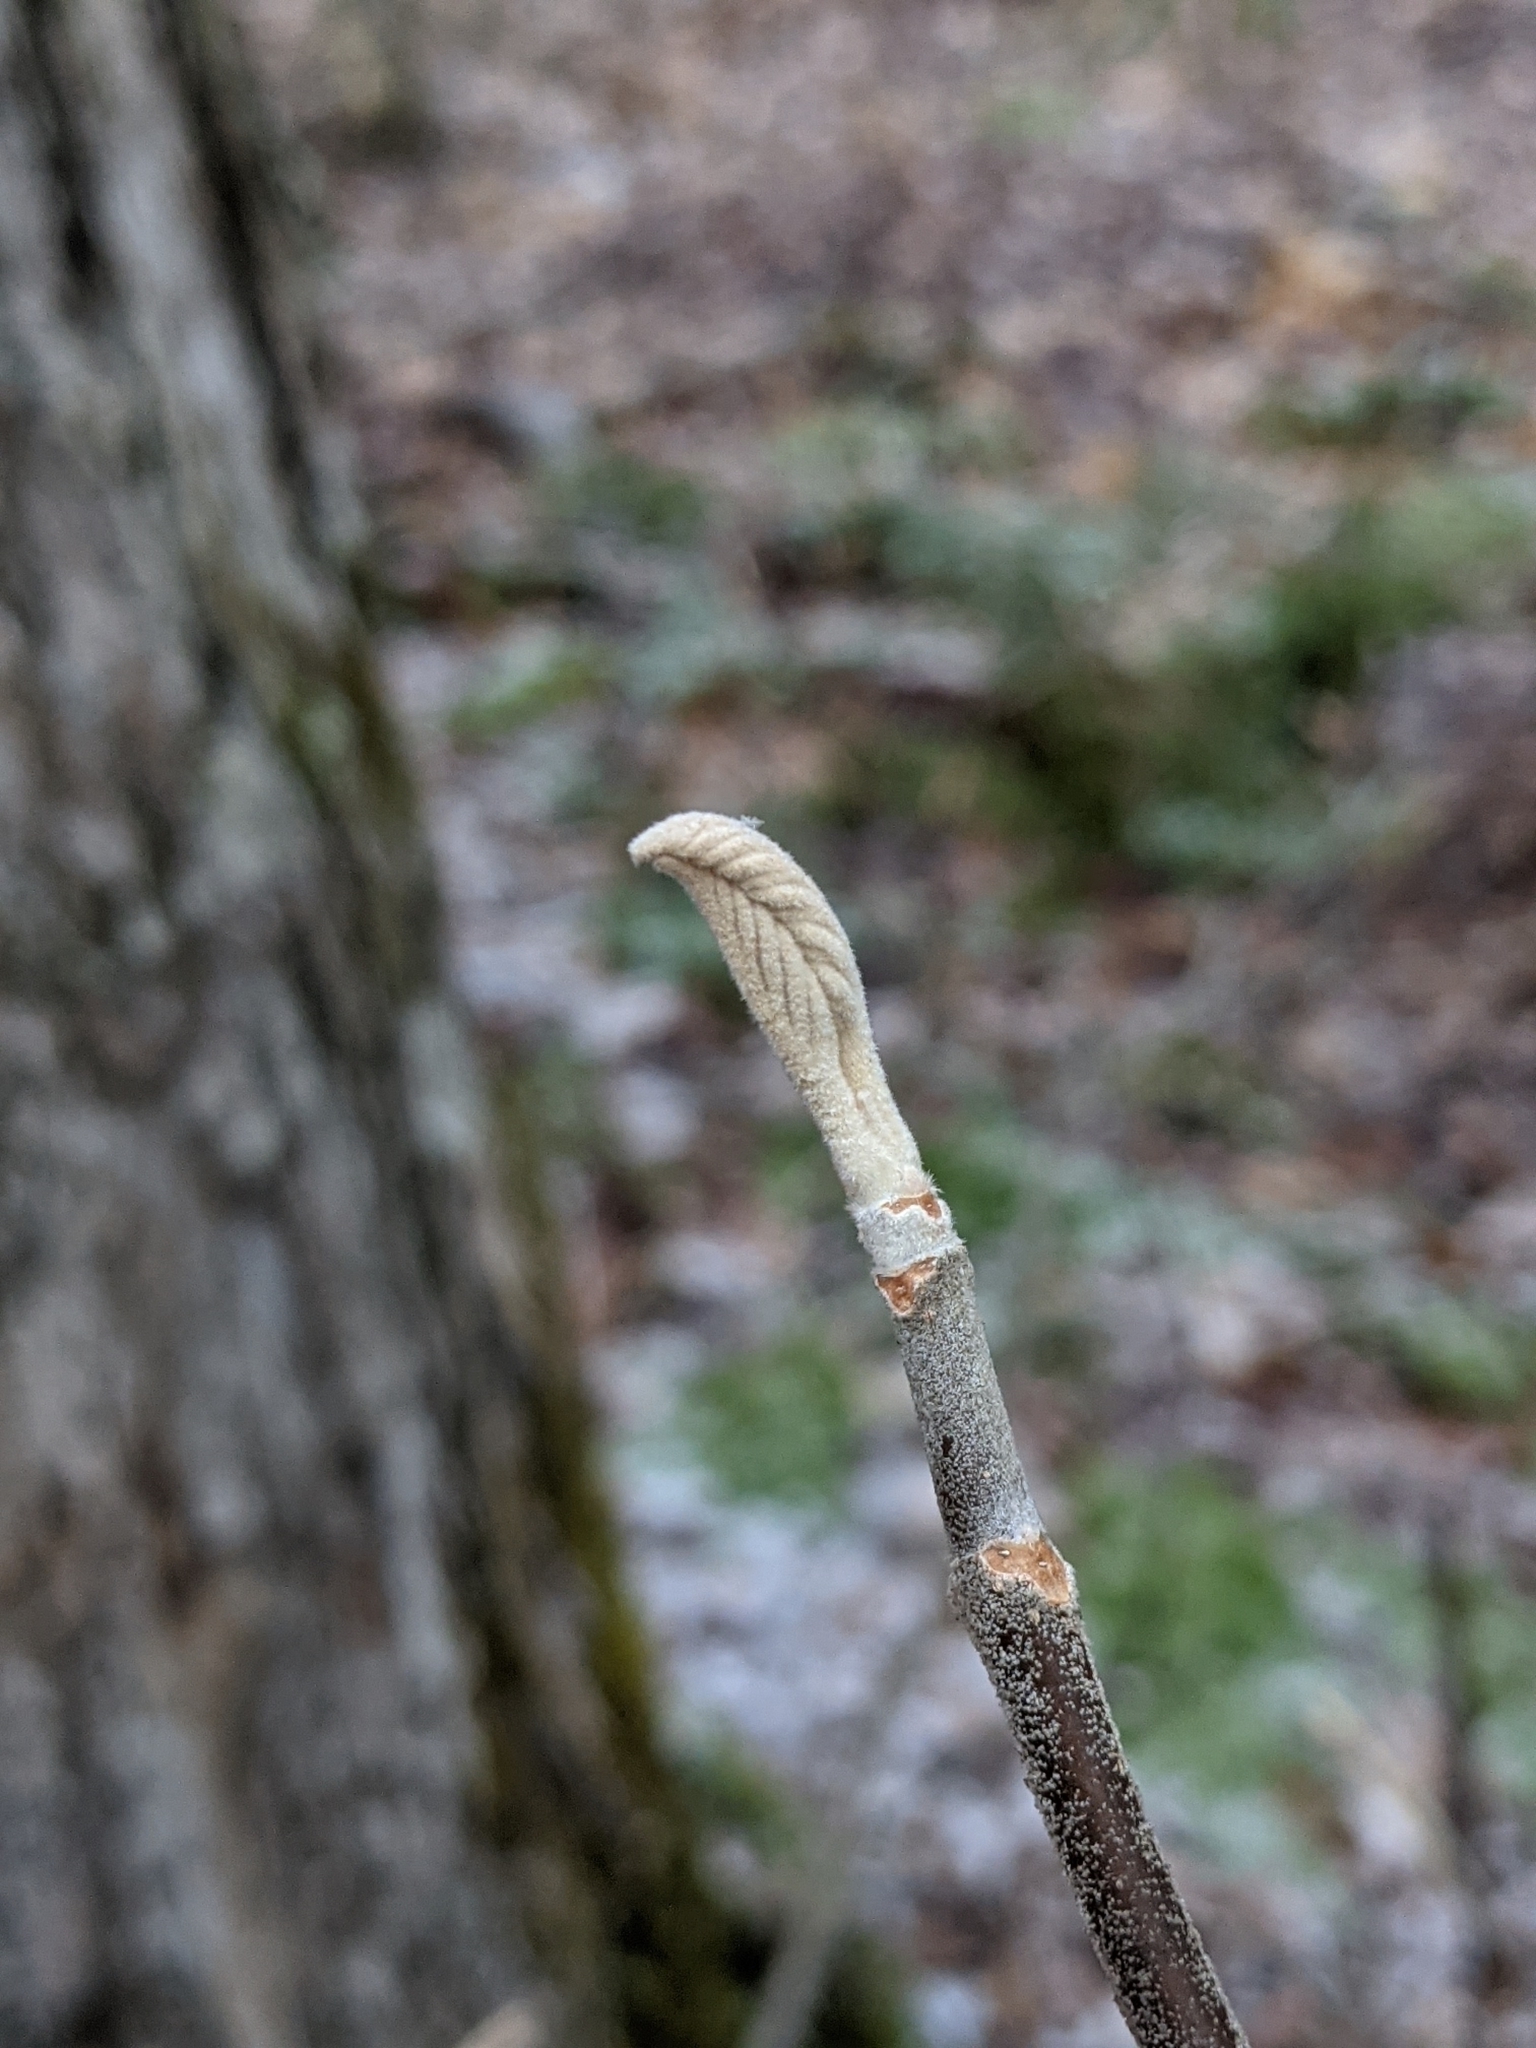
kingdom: Plantae
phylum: Tracheophyta
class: Magnoliopsida
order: Dipsacales
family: Viburnaceae
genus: Viburnum
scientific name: Viburnum lantanoides
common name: Hobblebush
